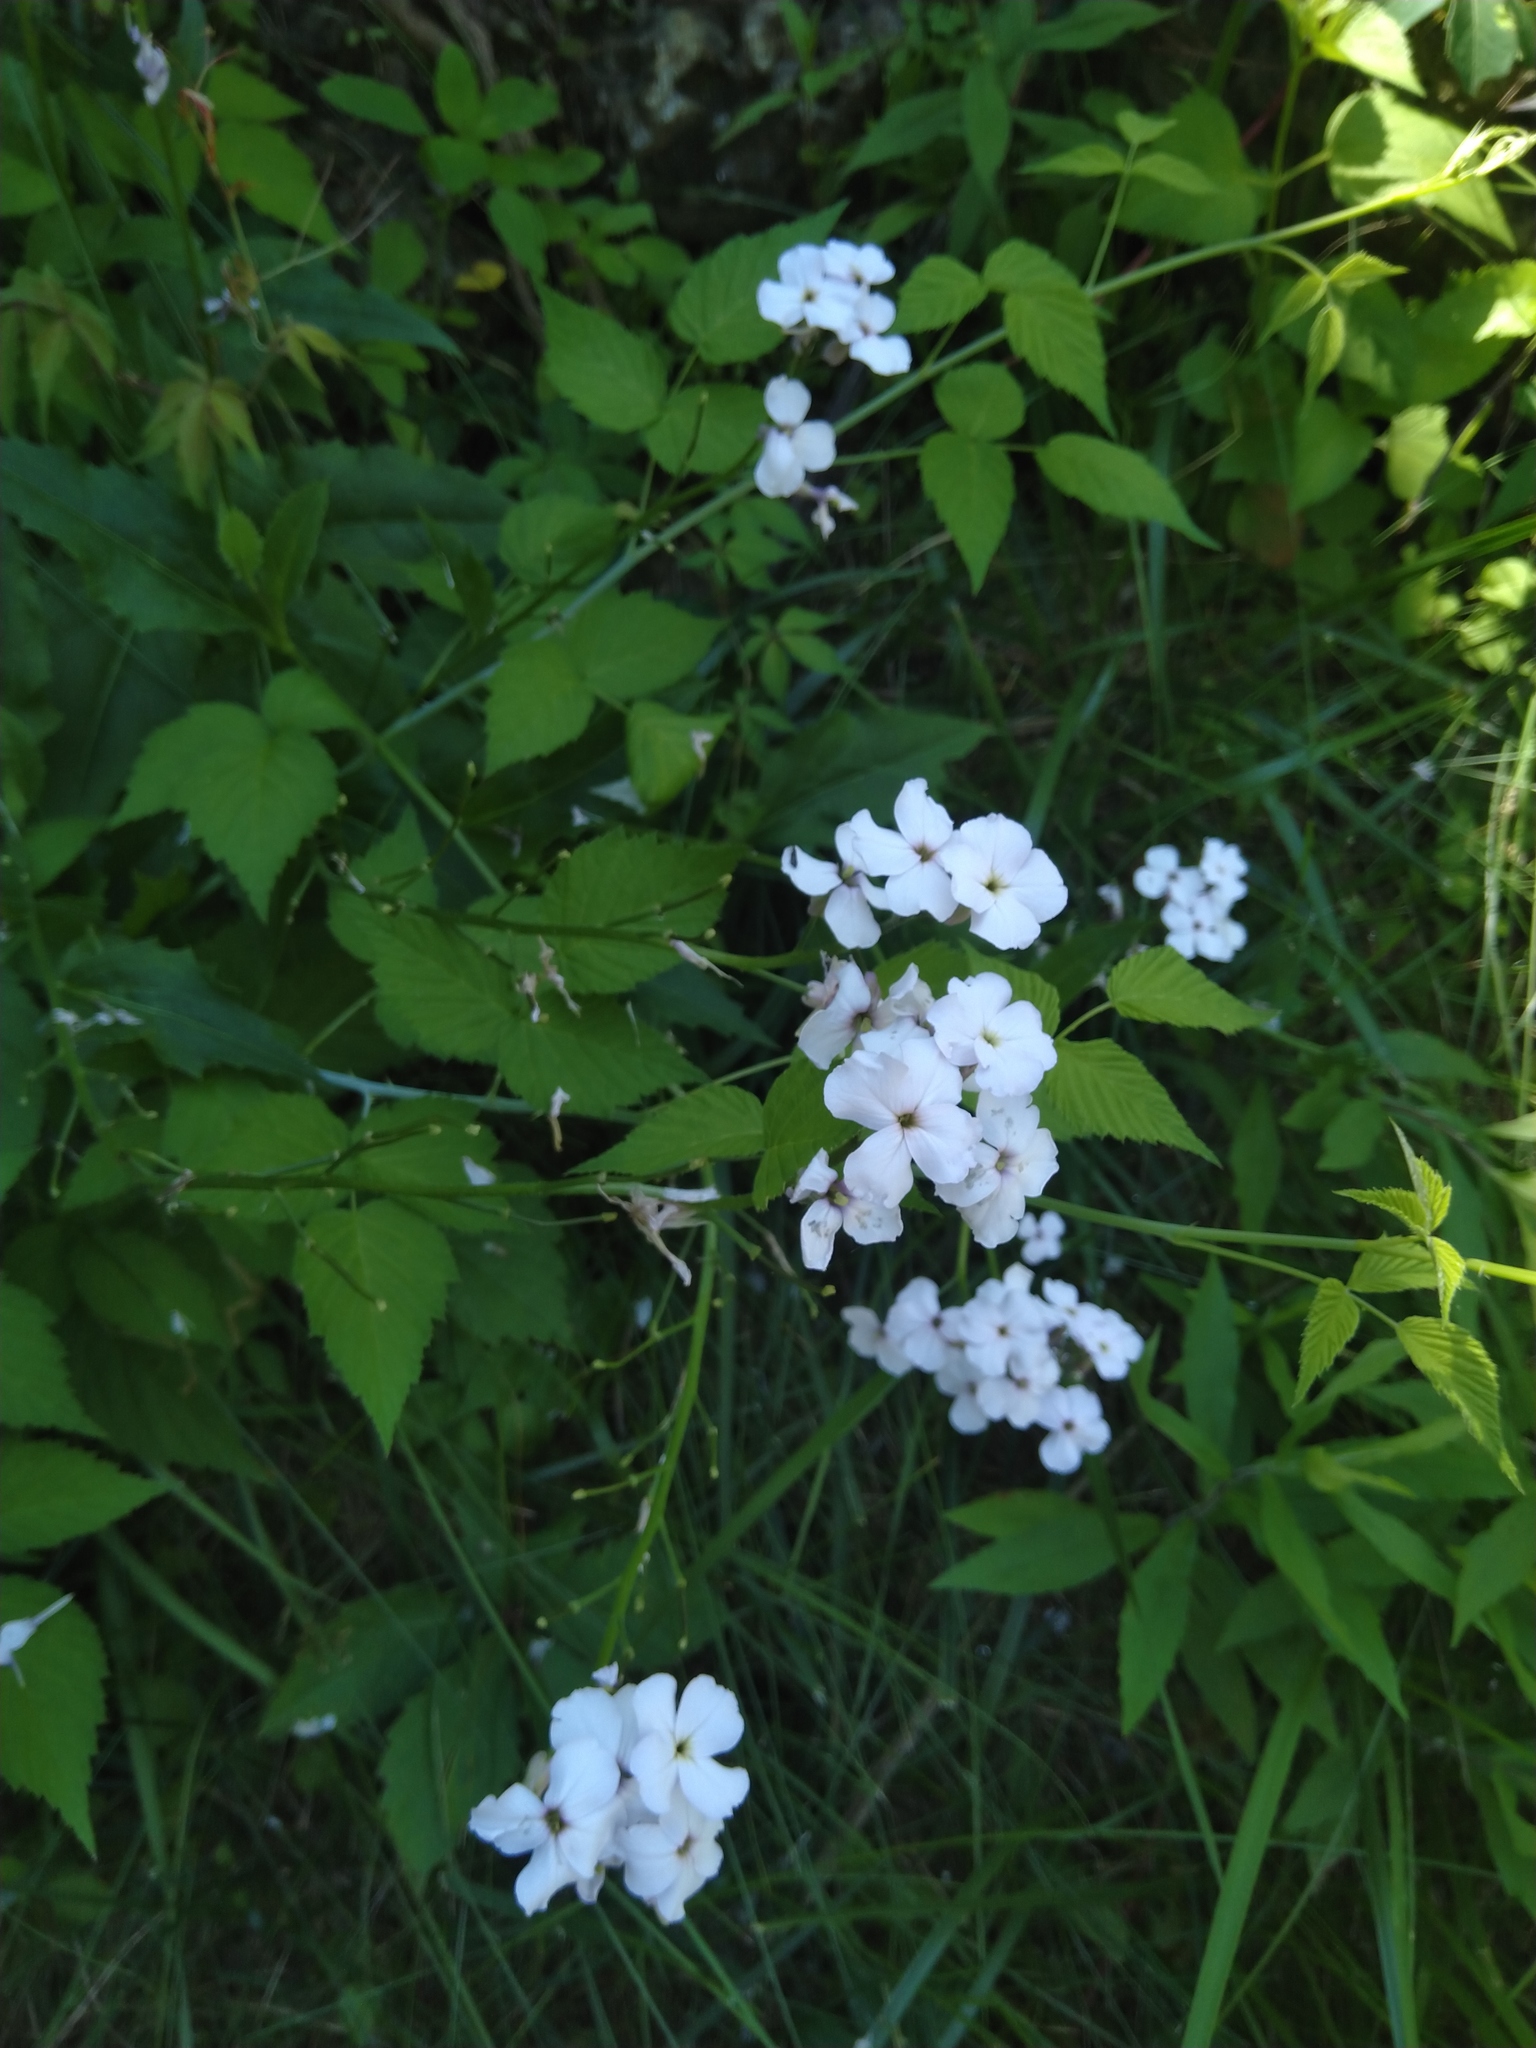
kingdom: Plantae
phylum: Tracheophyta
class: Magnoliopsida
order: Brassicales
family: Brassicaceae
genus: Hesperis
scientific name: Hesperis matronalis
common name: Dame's-violet
